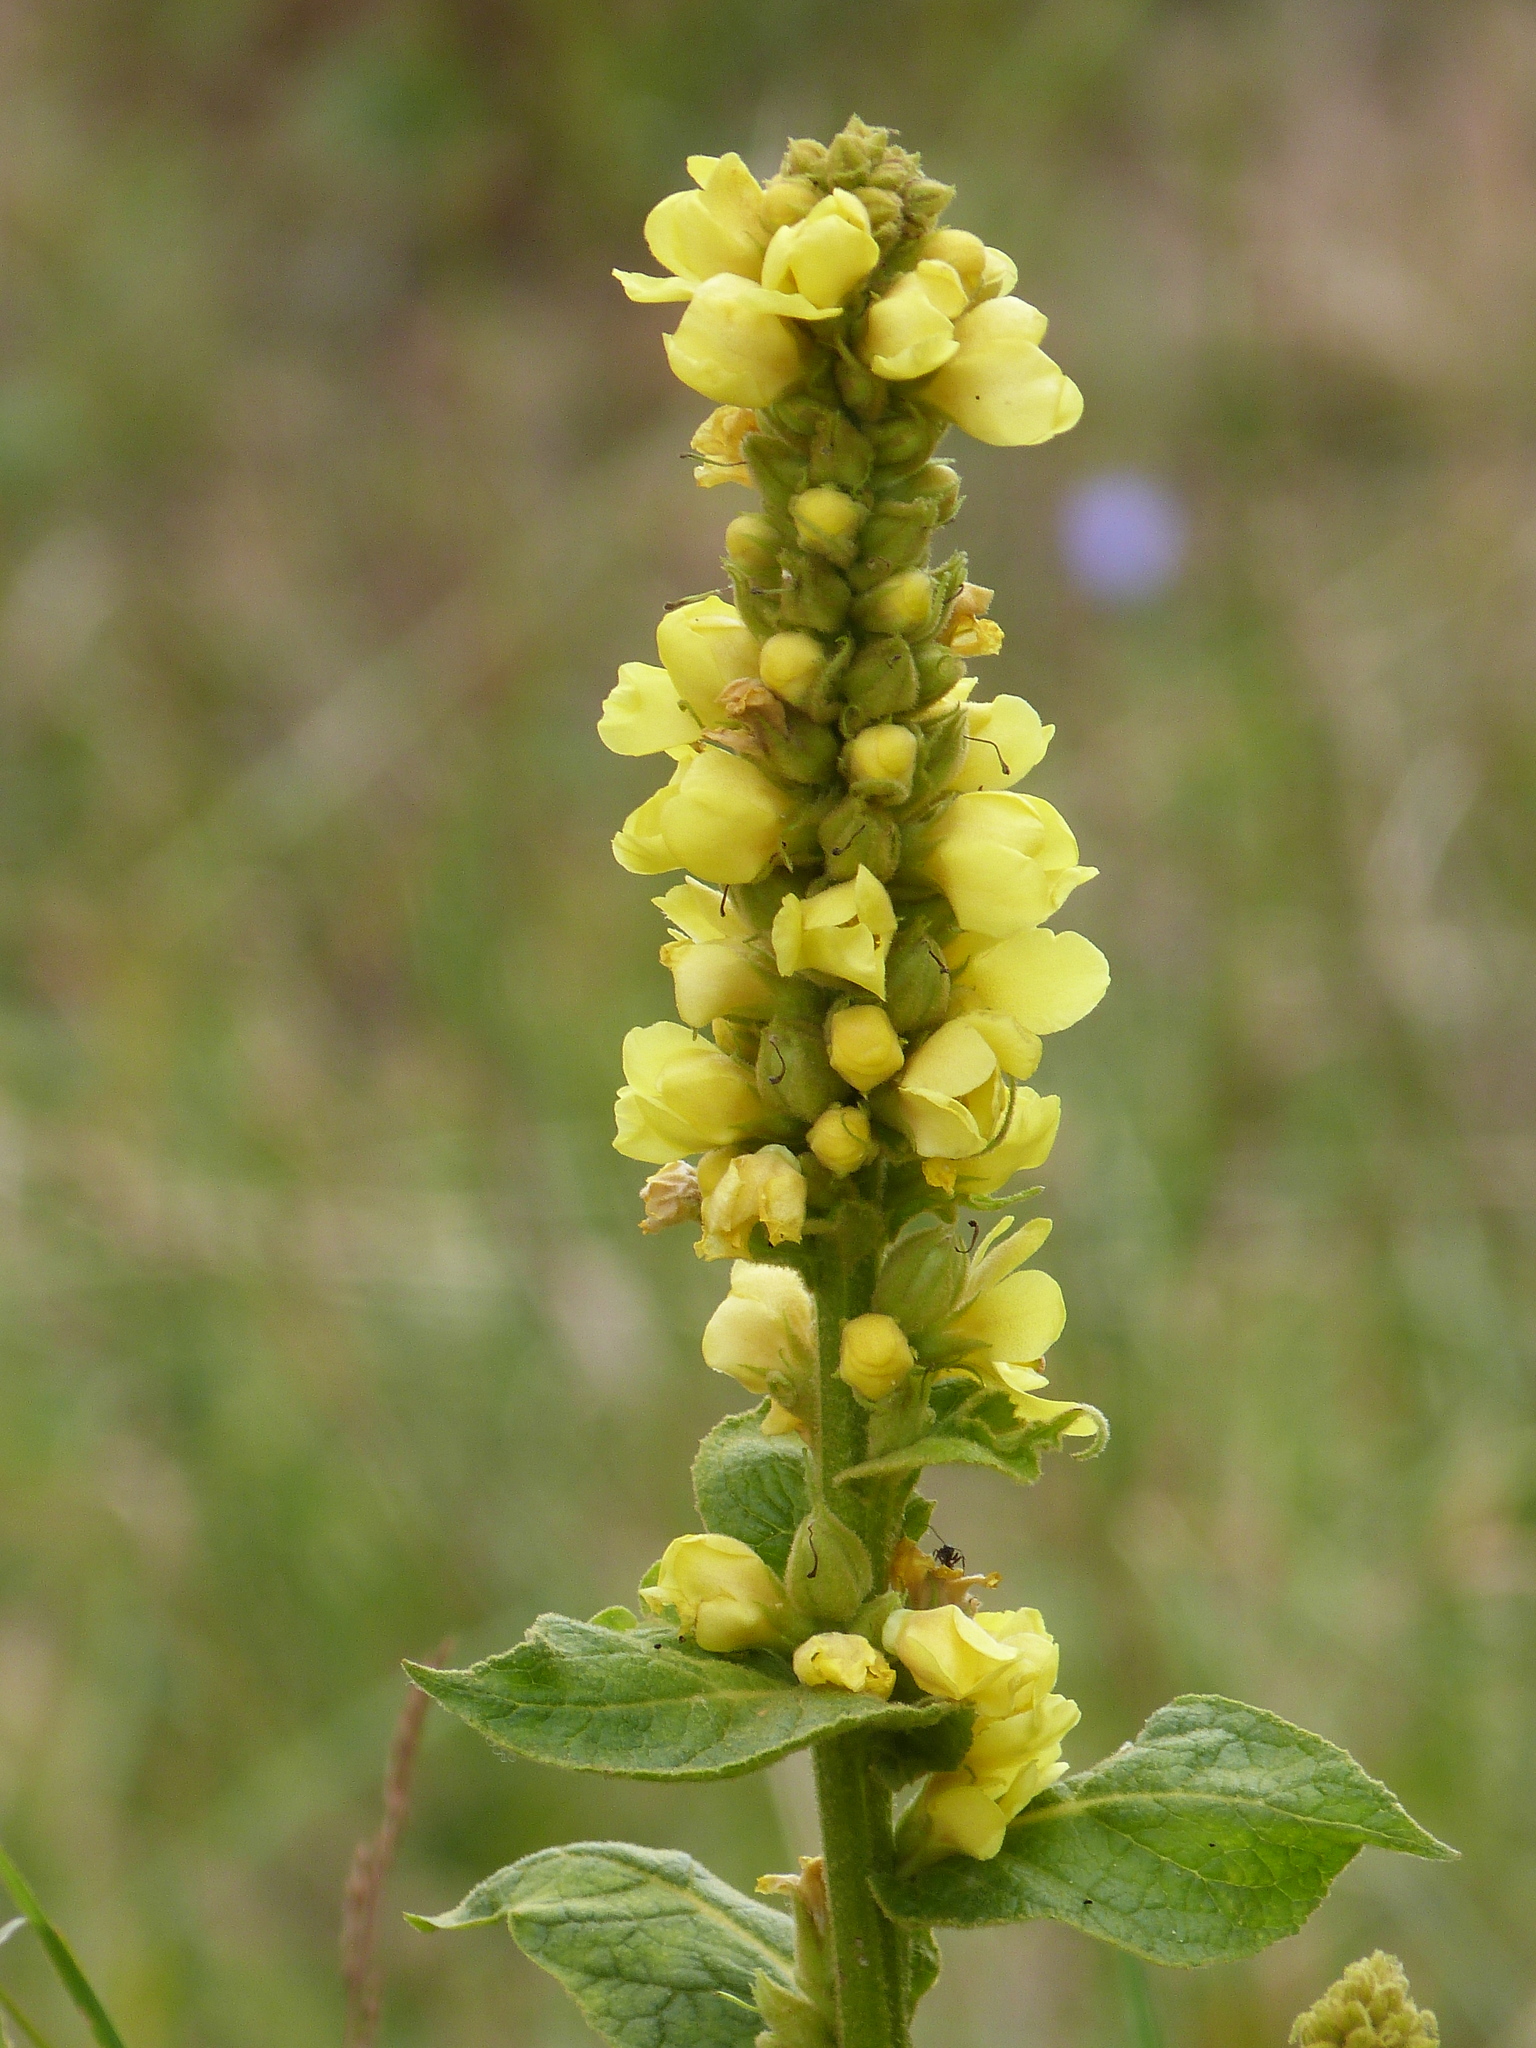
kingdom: Plantae
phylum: Tracheophyta
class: Magnoliopsida
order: Lamiales
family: Scrophulariaceae
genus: Verbascum
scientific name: Verbascum thapsus
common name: Common mullein
